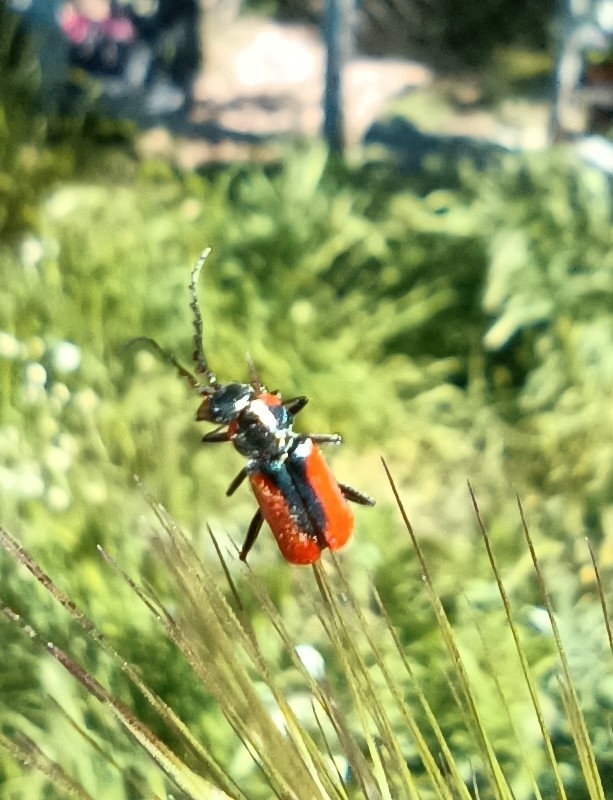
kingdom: Animalia
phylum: Arthropoda
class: Insecta
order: Coleoptera
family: Melyridae
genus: Malachius
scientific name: Malachius
